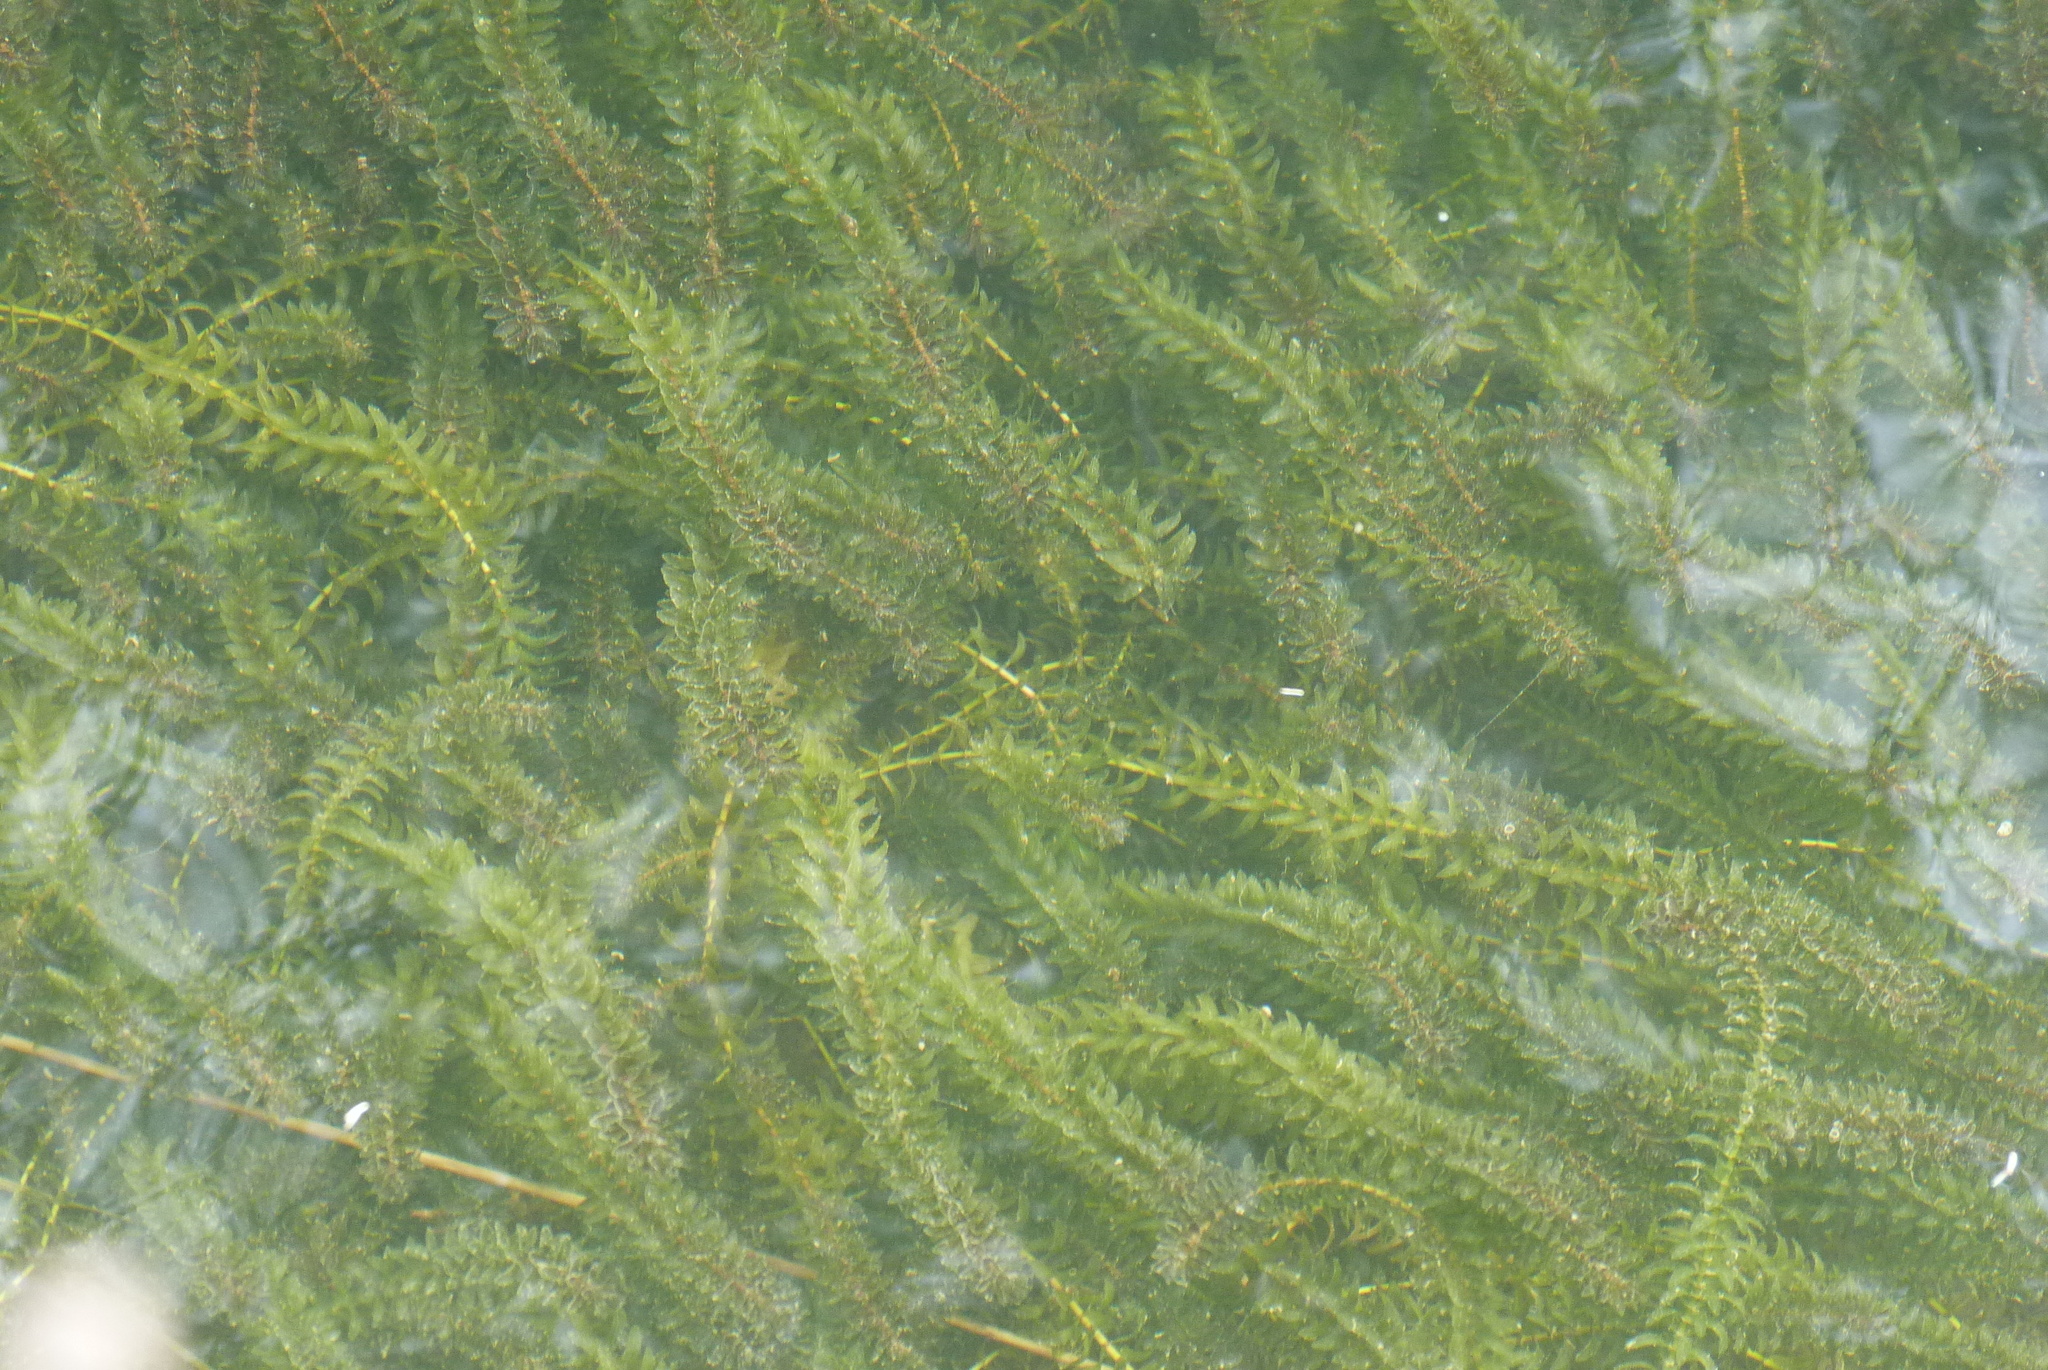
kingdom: Plantae
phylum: Tracheophyta
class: Liliopsida
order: Alismatales
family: Hydrocharitaceae
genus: Elodea
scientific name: Elodea canadensis
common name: Canadian waterweed
